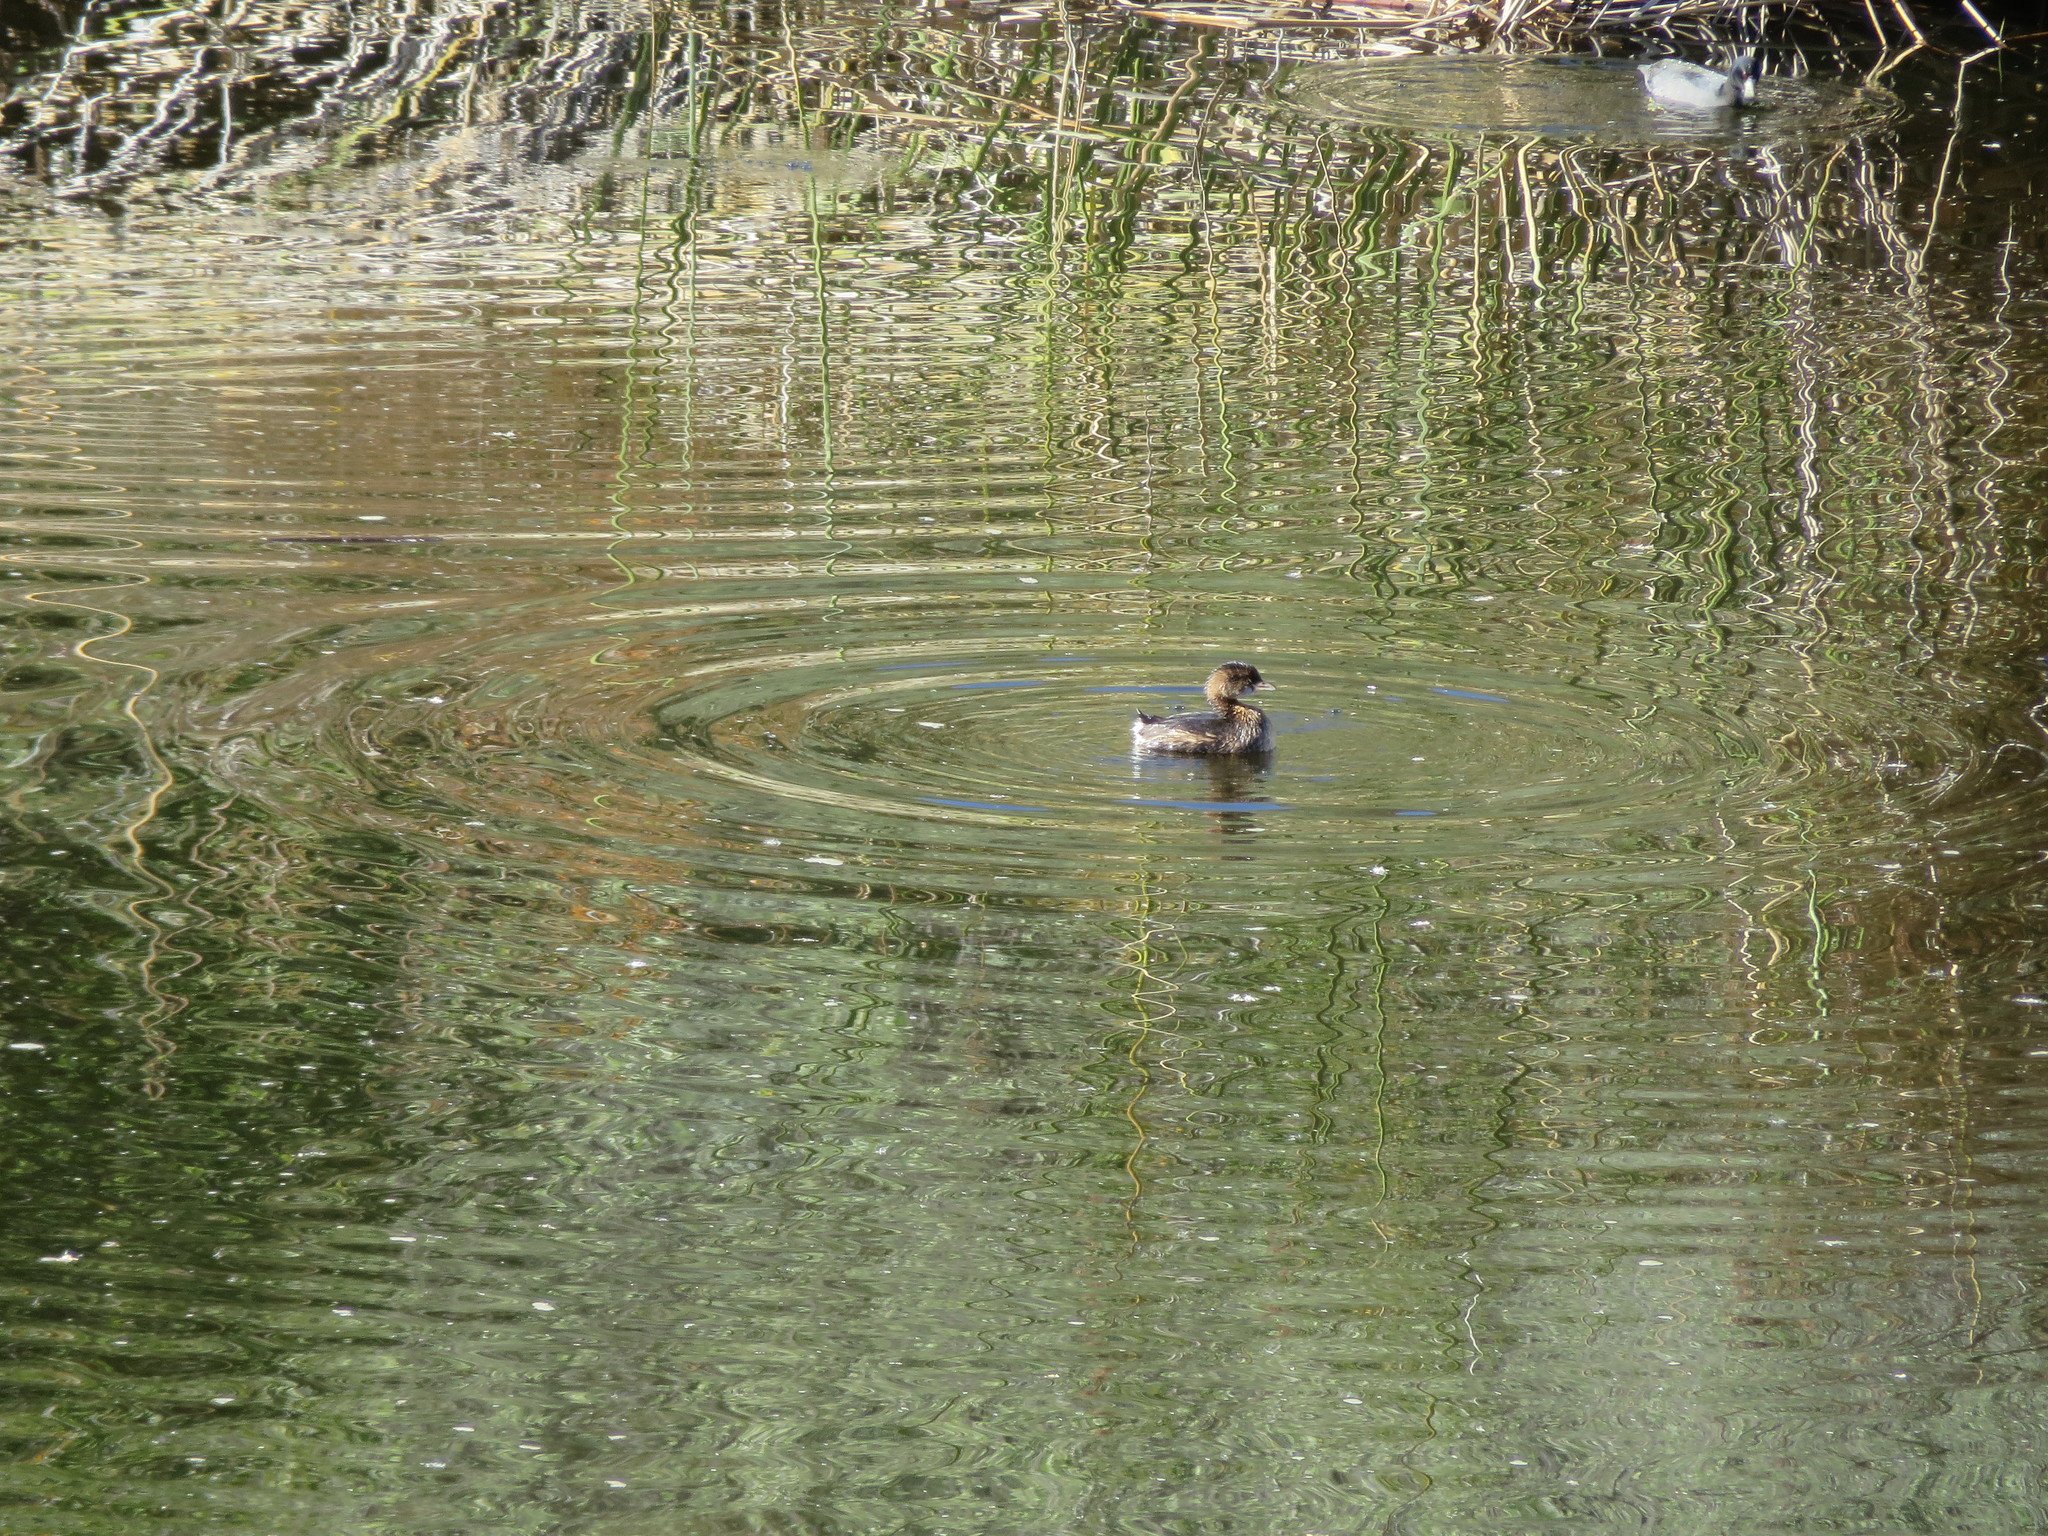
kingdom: Animalia
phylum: Chordata
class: Aves
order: Podicipediformes
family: Podicipedidae
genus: Podilymbus
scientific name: Podilymbus podiceps
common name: Pied-billed grebe
